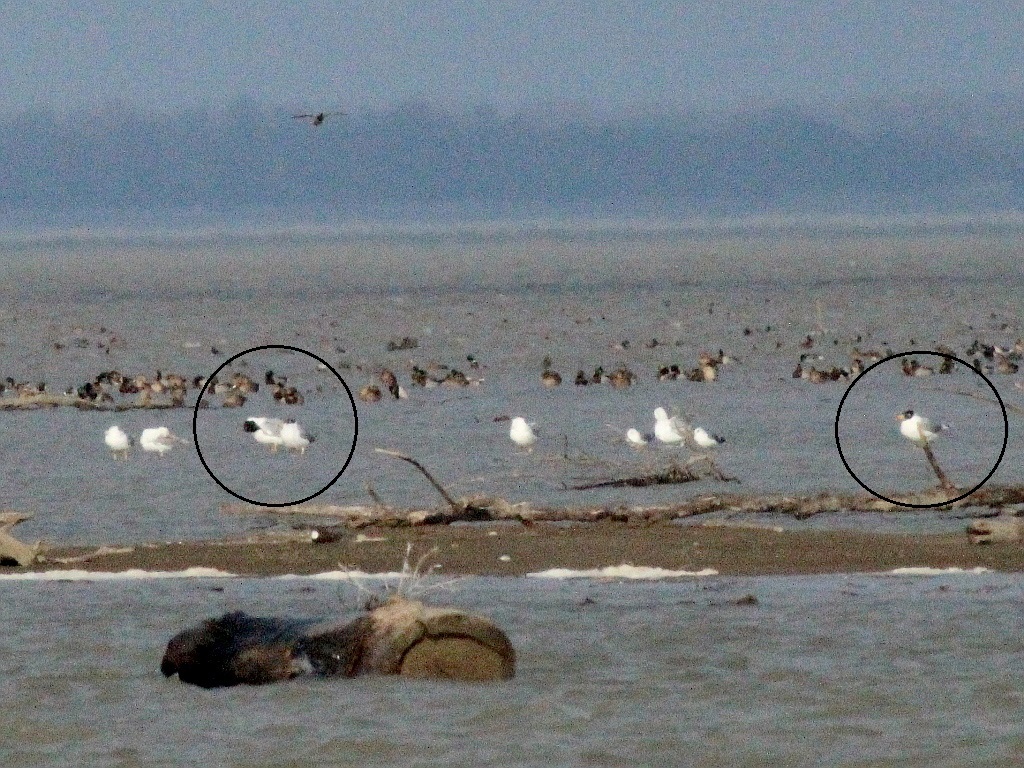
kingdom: Animalia
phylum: Chordata
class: Aves
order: Charadriiformes
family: Laridae
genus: Ichthyaetus
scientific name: Ichthyaetus ichthyaetus
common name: Pallas's gull
